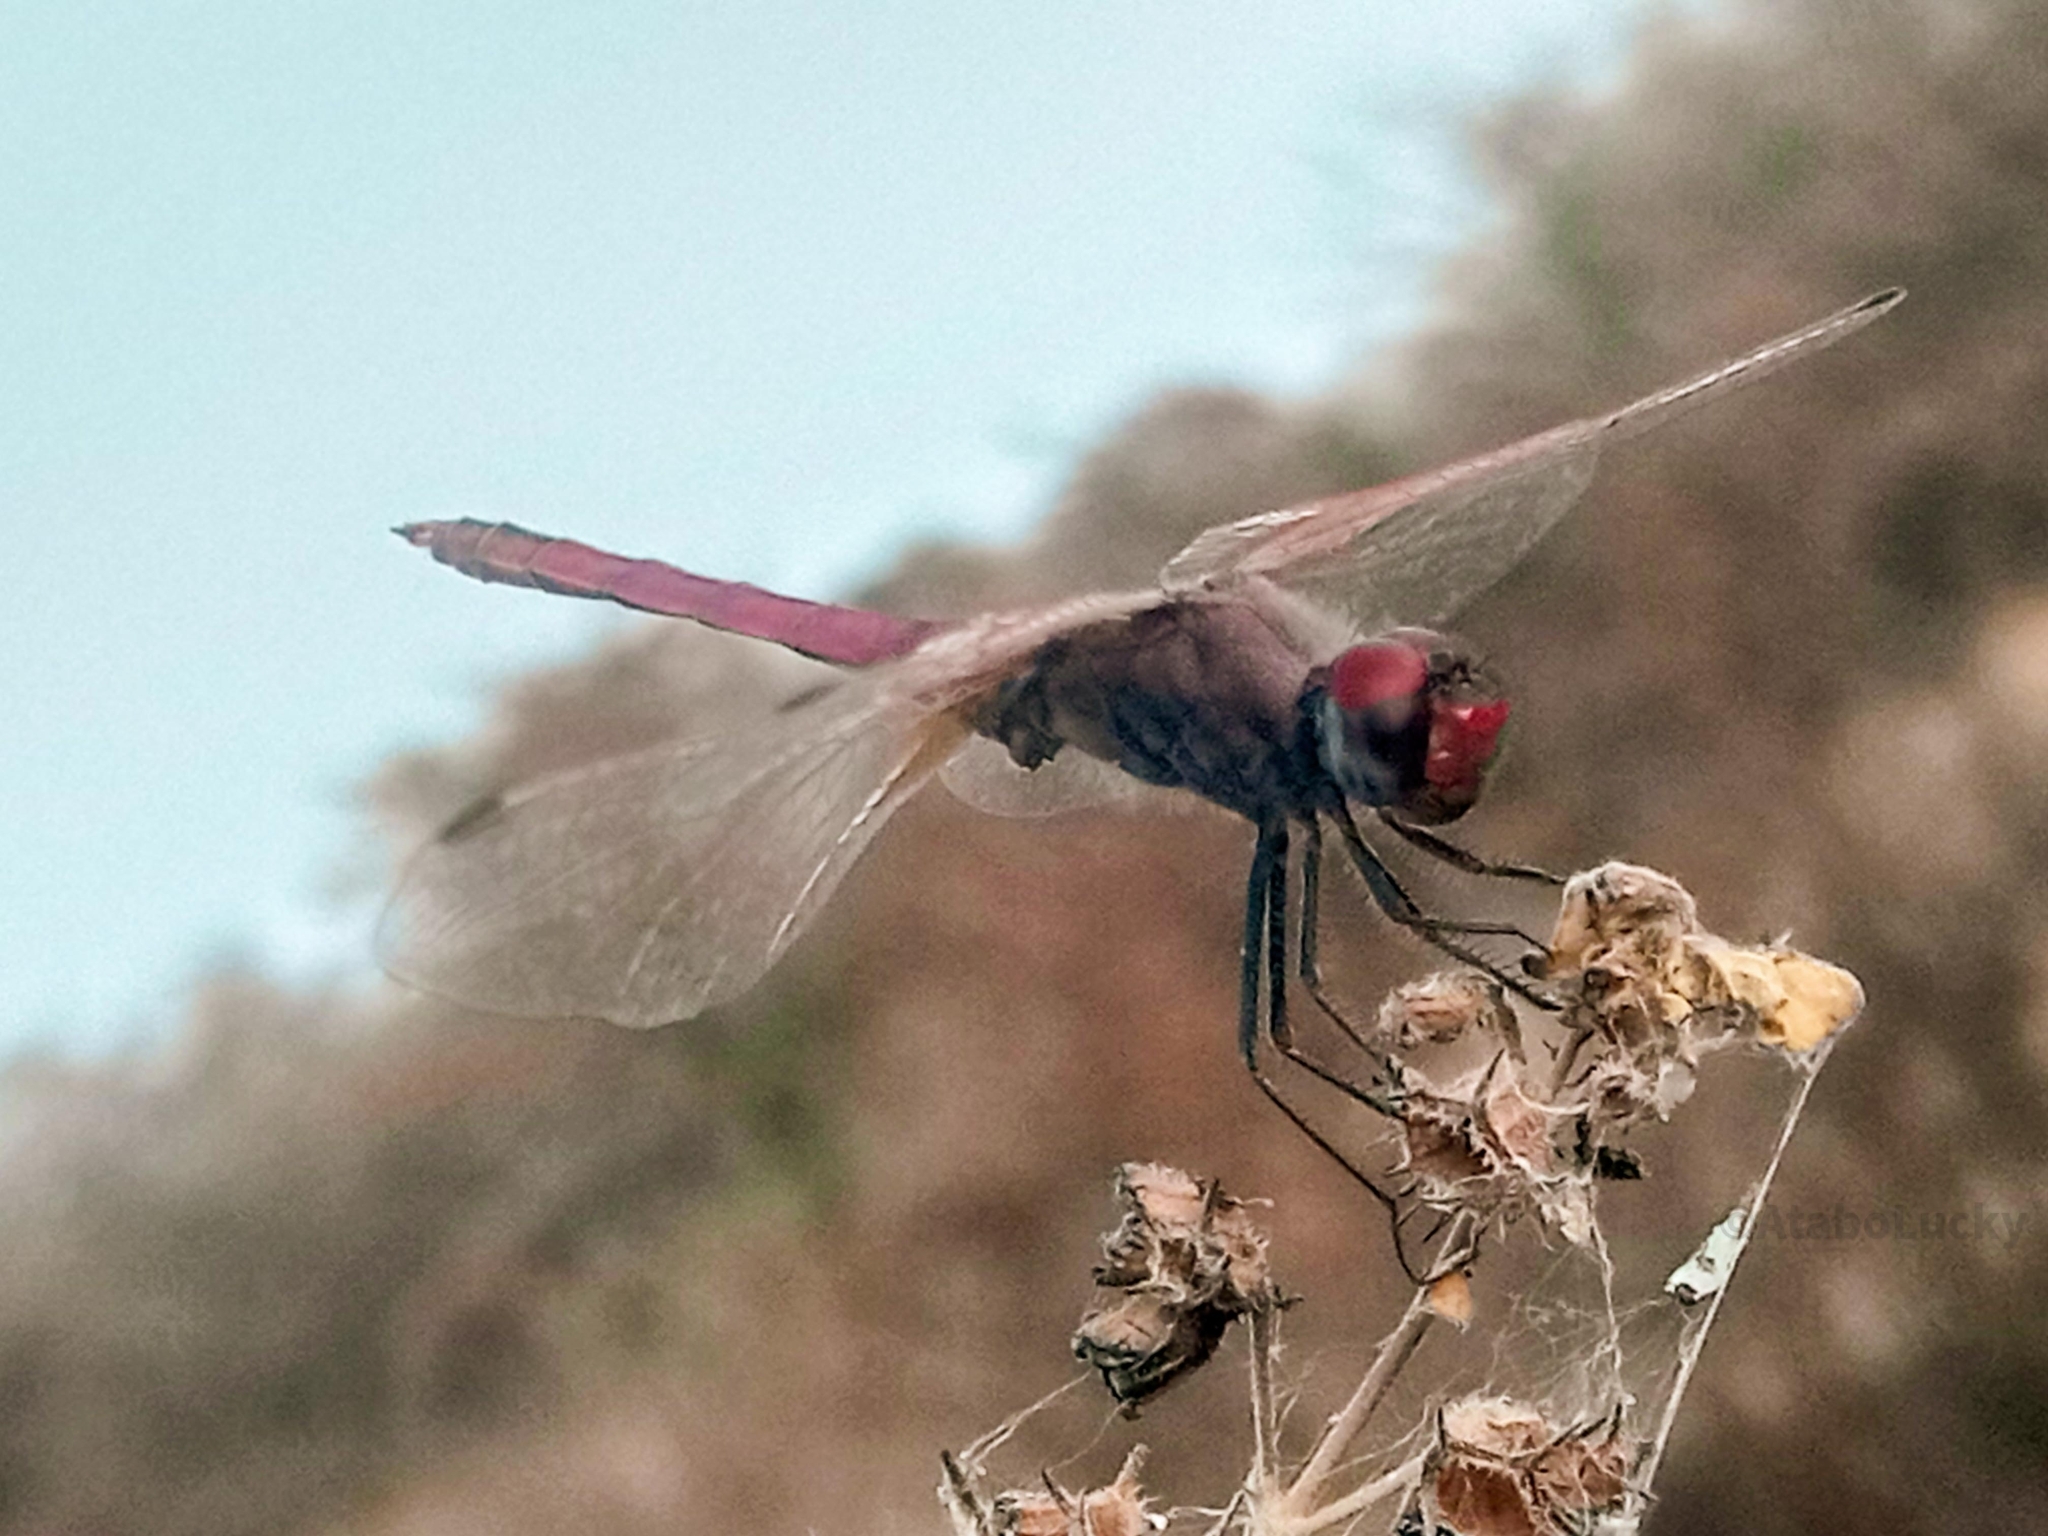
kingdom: Animalia
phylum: Arthropoda
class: Insecta
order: Odonata
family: Libellulidae
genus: Trithemis
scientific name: Trithemis annulata
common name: Violet dropwing
